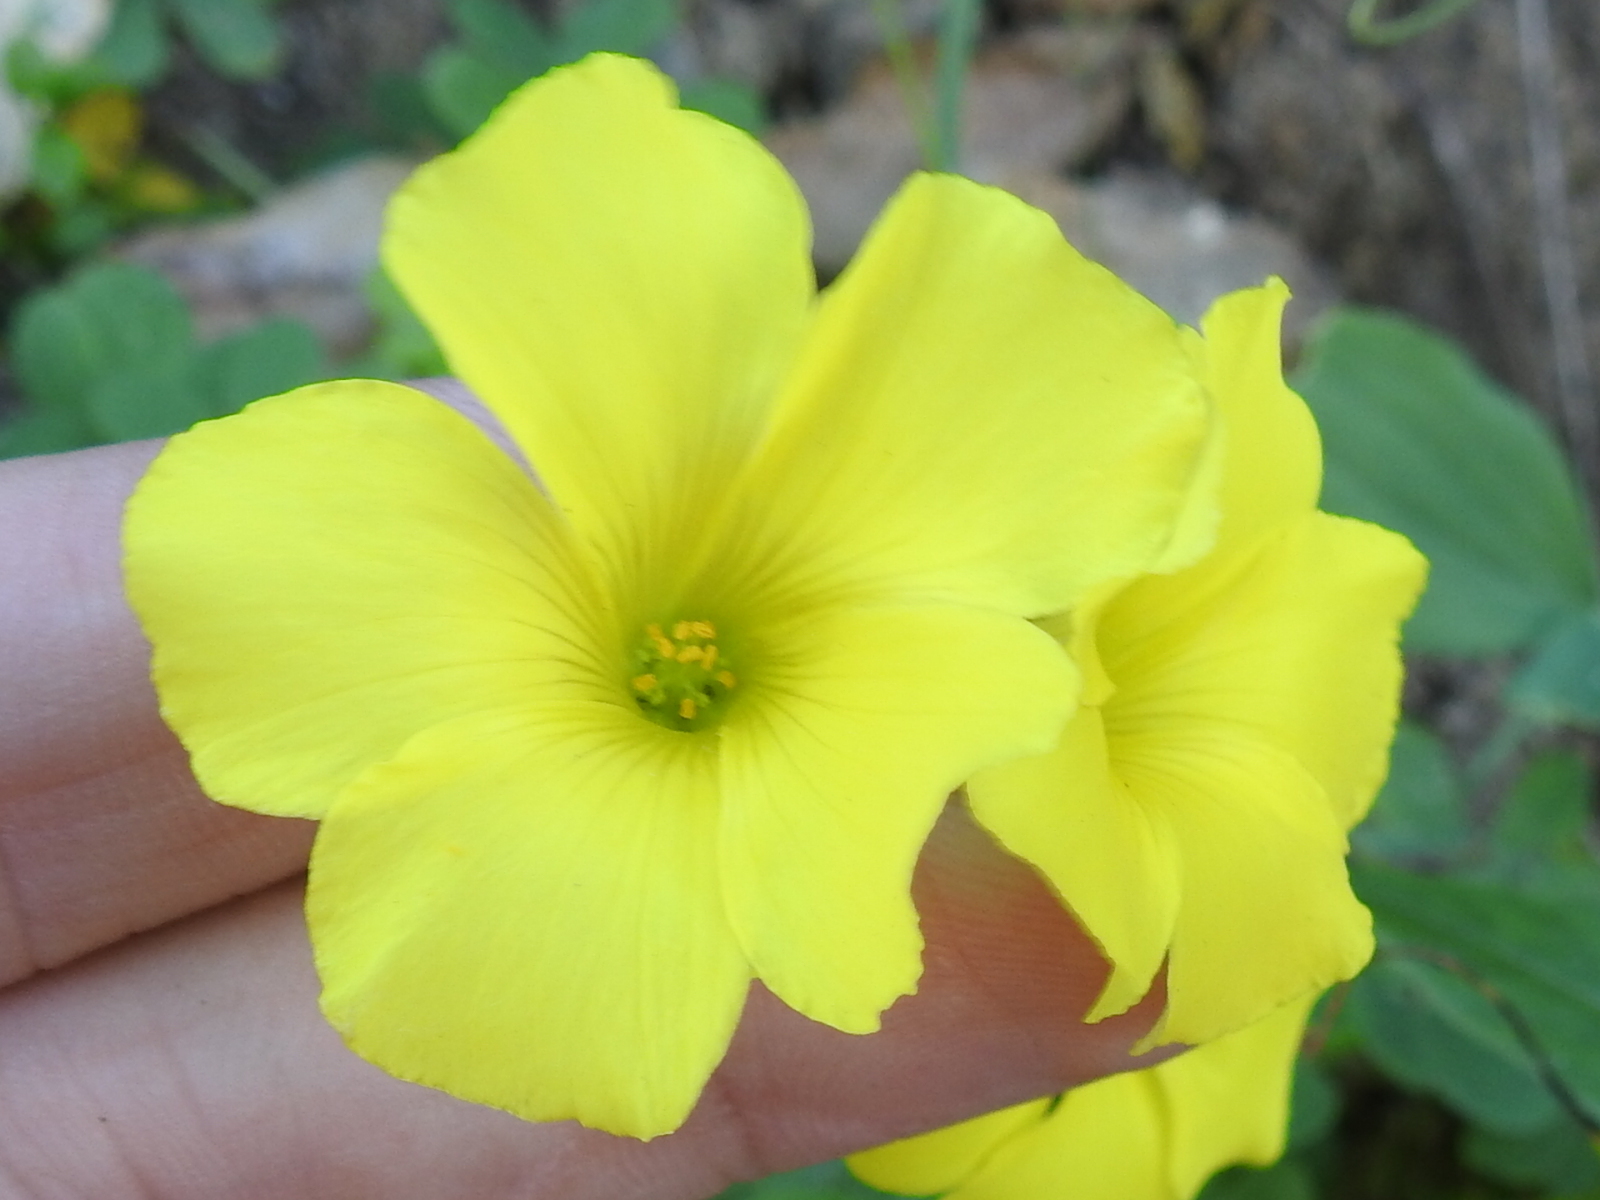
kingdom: Plantae
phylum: Tracheophyta
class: Magnoliopsida
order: Oxalidales
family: Oxalidaceae
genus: Oxalis
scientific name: Oxalis pes-caprae
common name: Bermuda-buttercup
